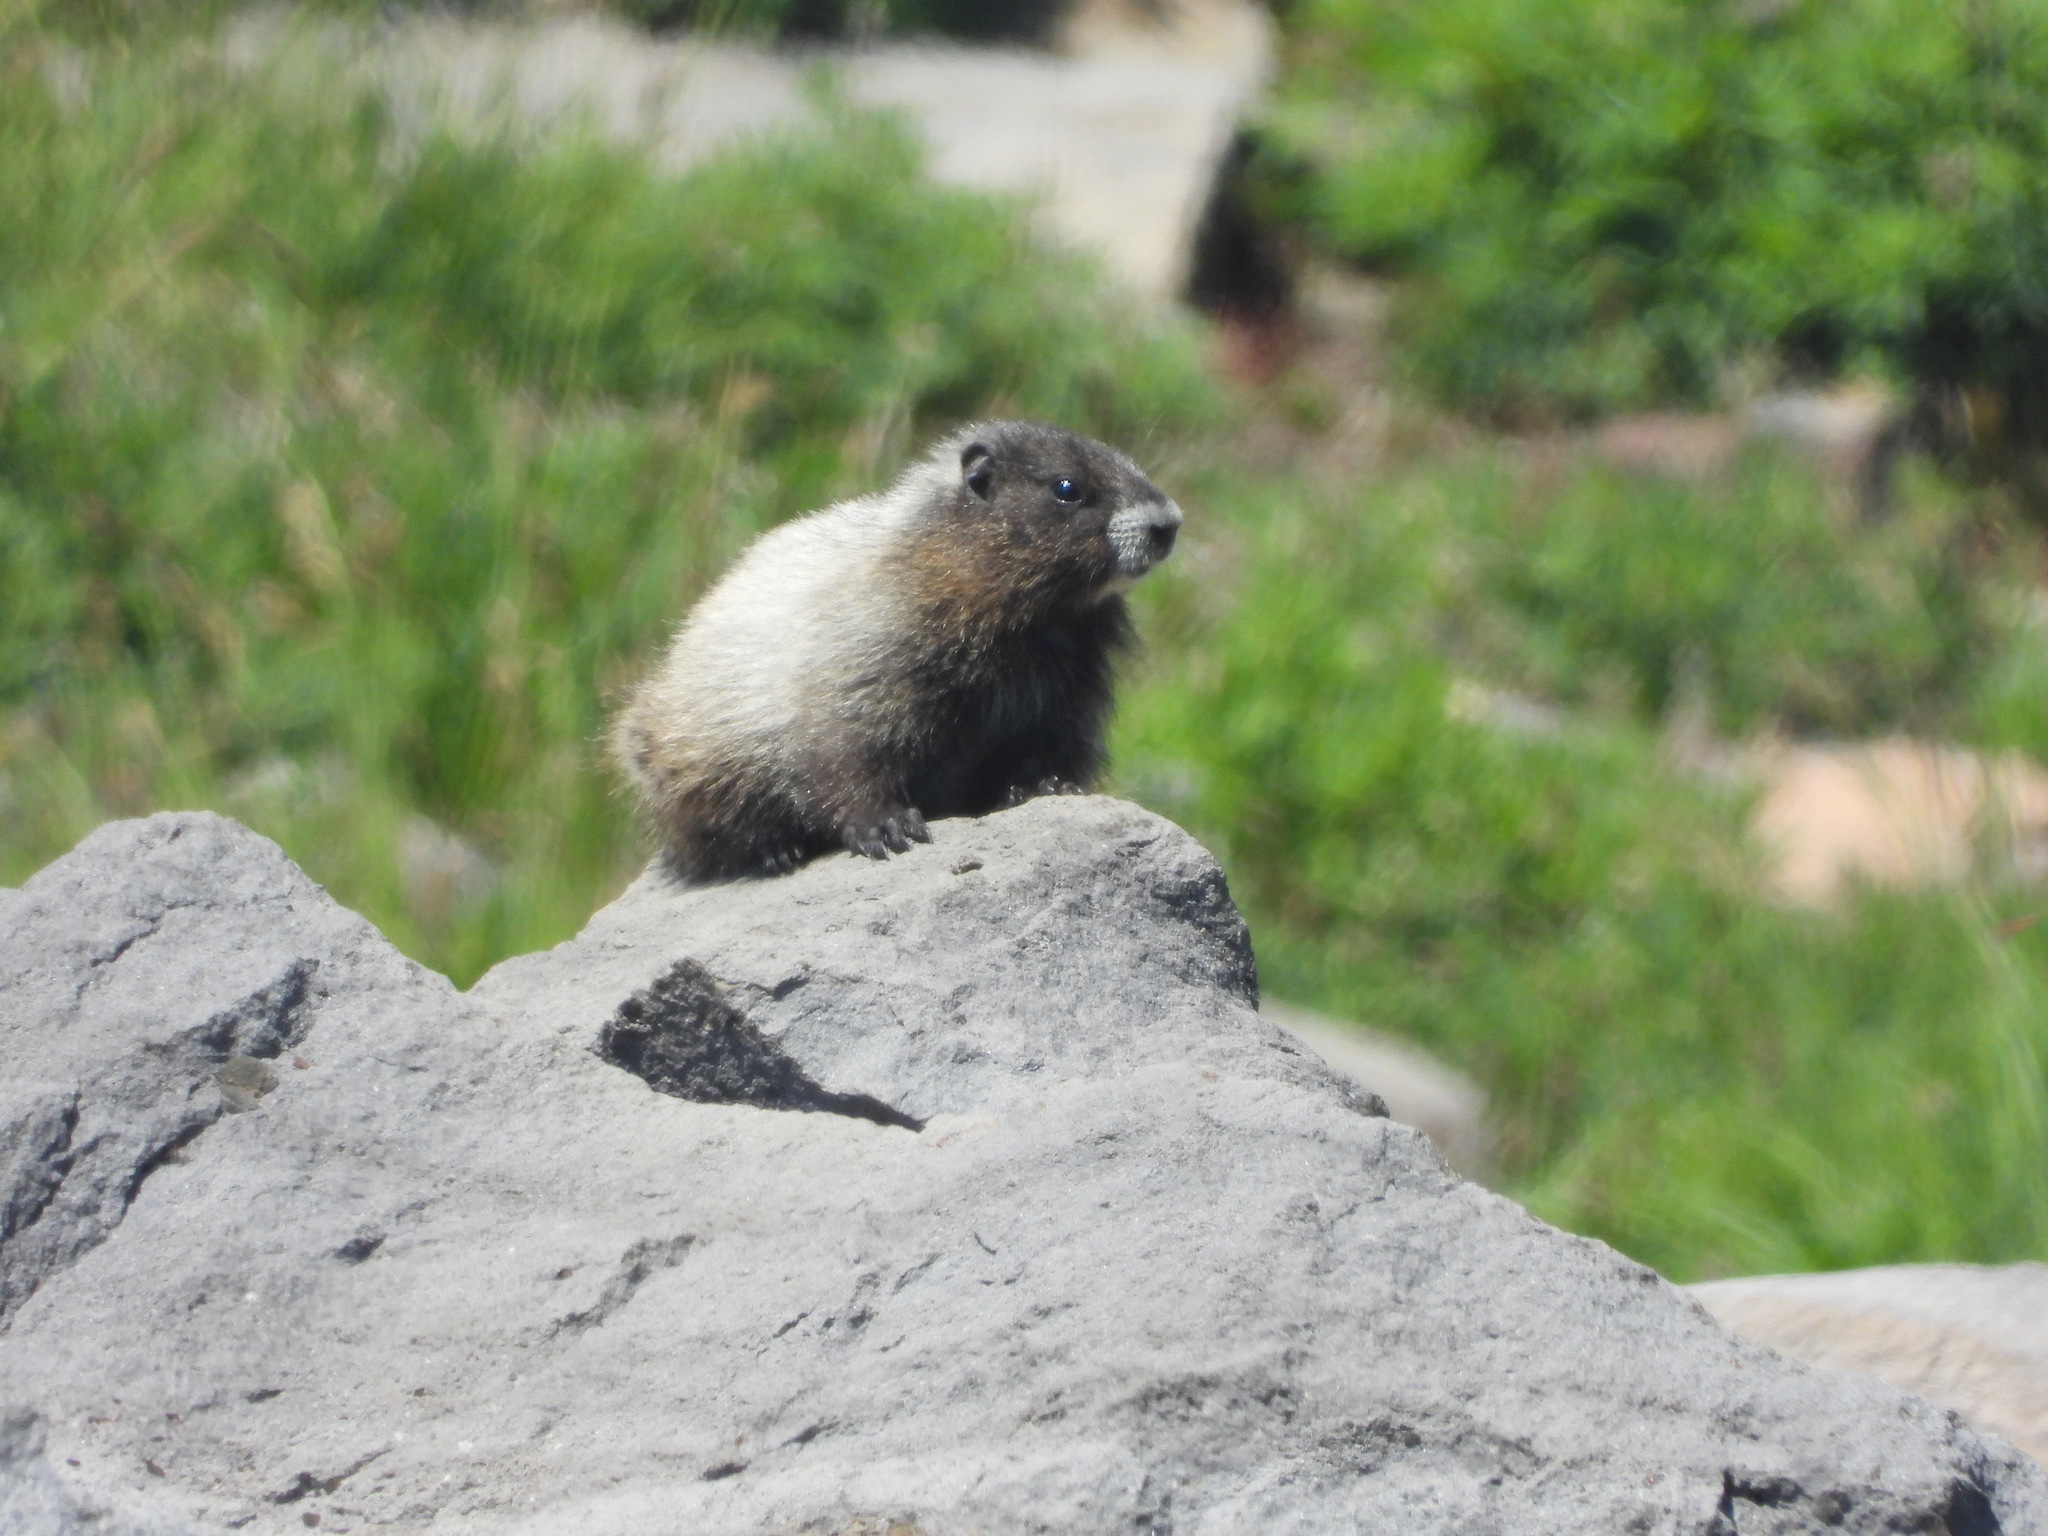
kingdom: Animalia
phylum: Chordata
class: Mammalia
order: Rodentia
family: Sciuridae
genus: Marmota
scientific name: Marmota caligata
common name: Hoary marmot
